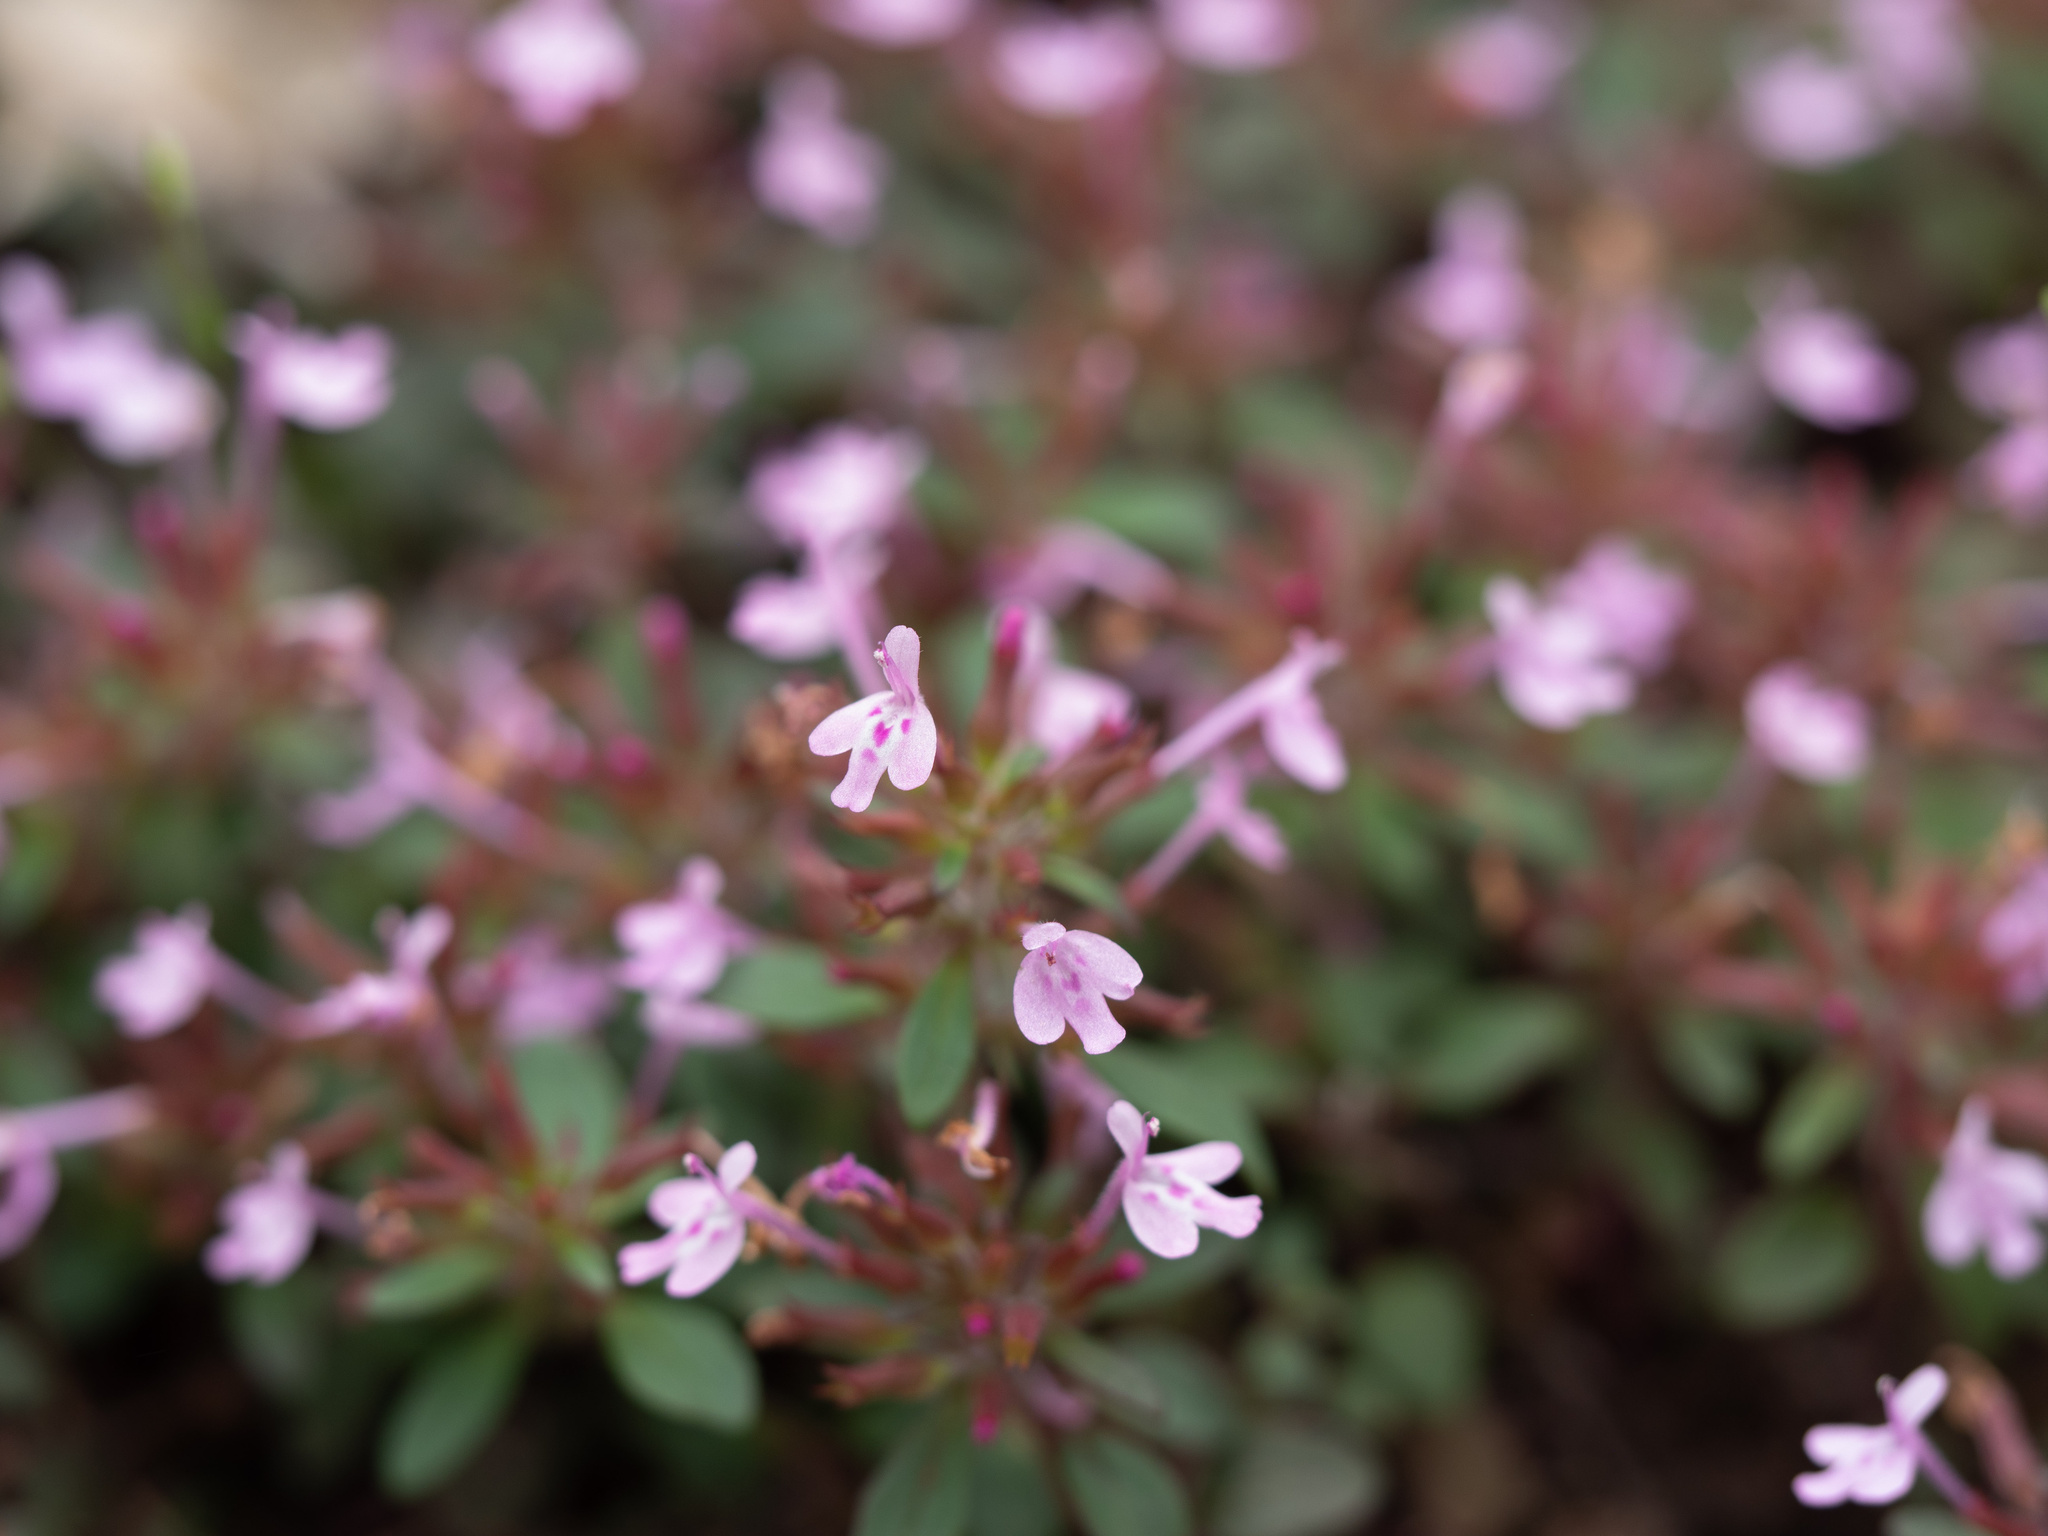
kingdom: Plantae
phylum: Tracheophyta
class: Magnoliopsida
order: Lamiales
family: Lamiaceae
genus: Hedeoma
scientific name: Hedeoma acinoides
